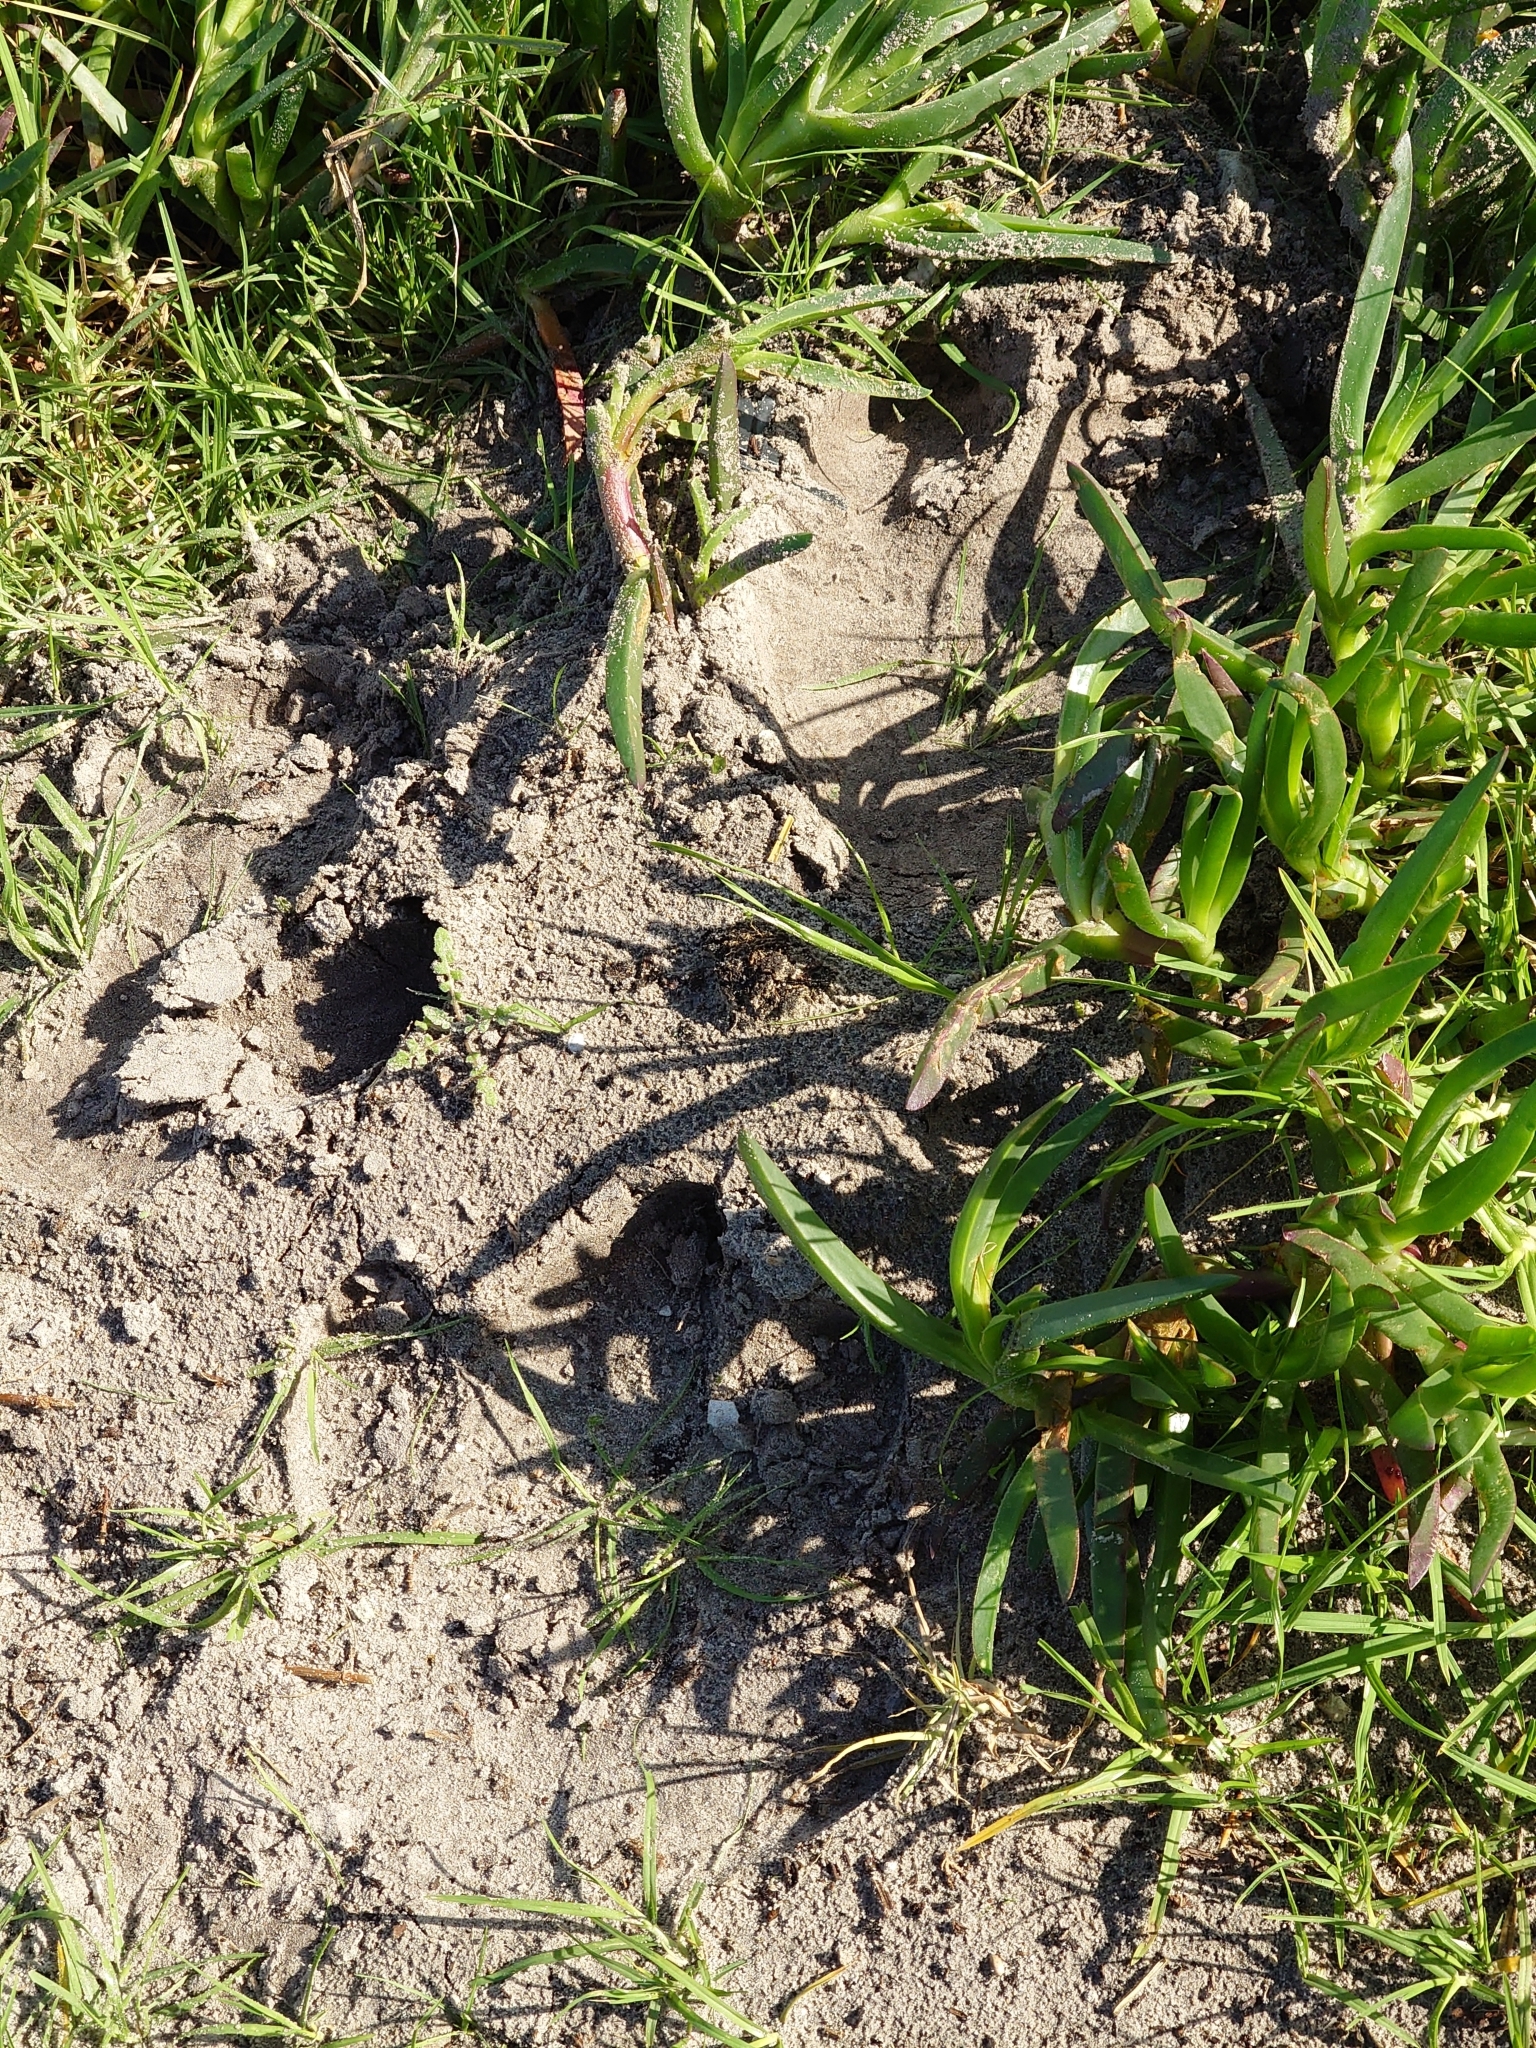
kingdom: Animalia
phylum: Chordata
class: Mammalia
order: Artiodactyla
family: Hippopotamidae
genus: Hippopotamus
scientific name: Hippopotamus amphibius
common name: Common hippopotamus
